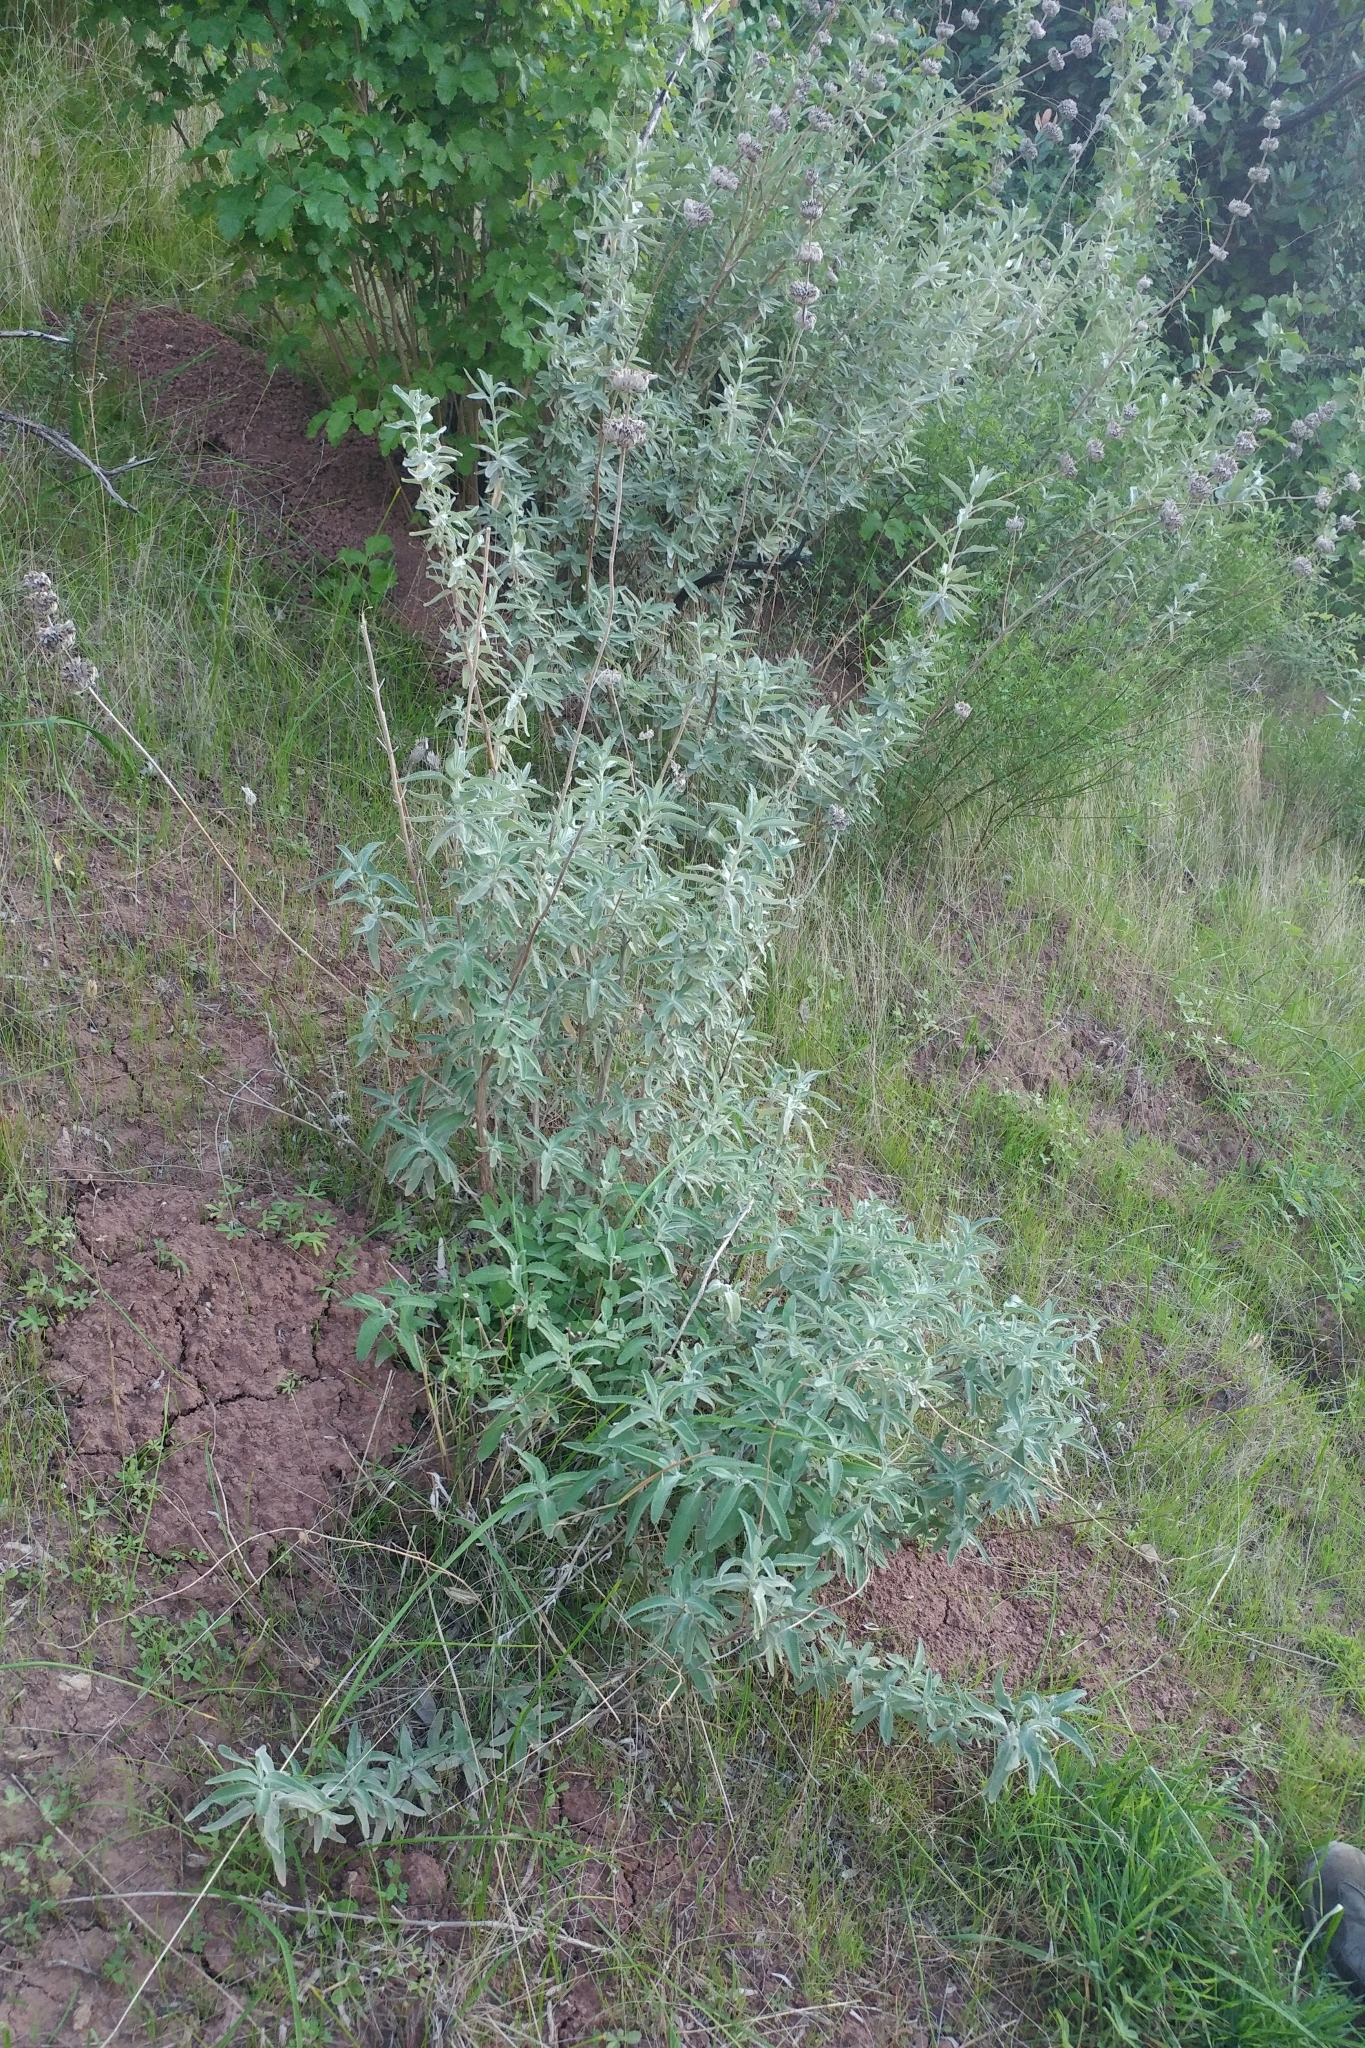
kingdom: Plantae
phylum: Tracheophyta
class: Magnoliopsida
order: Lamiales
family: Lamiaceae
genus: Salvia
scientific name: Salvia leucophylla
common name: Purple sage
